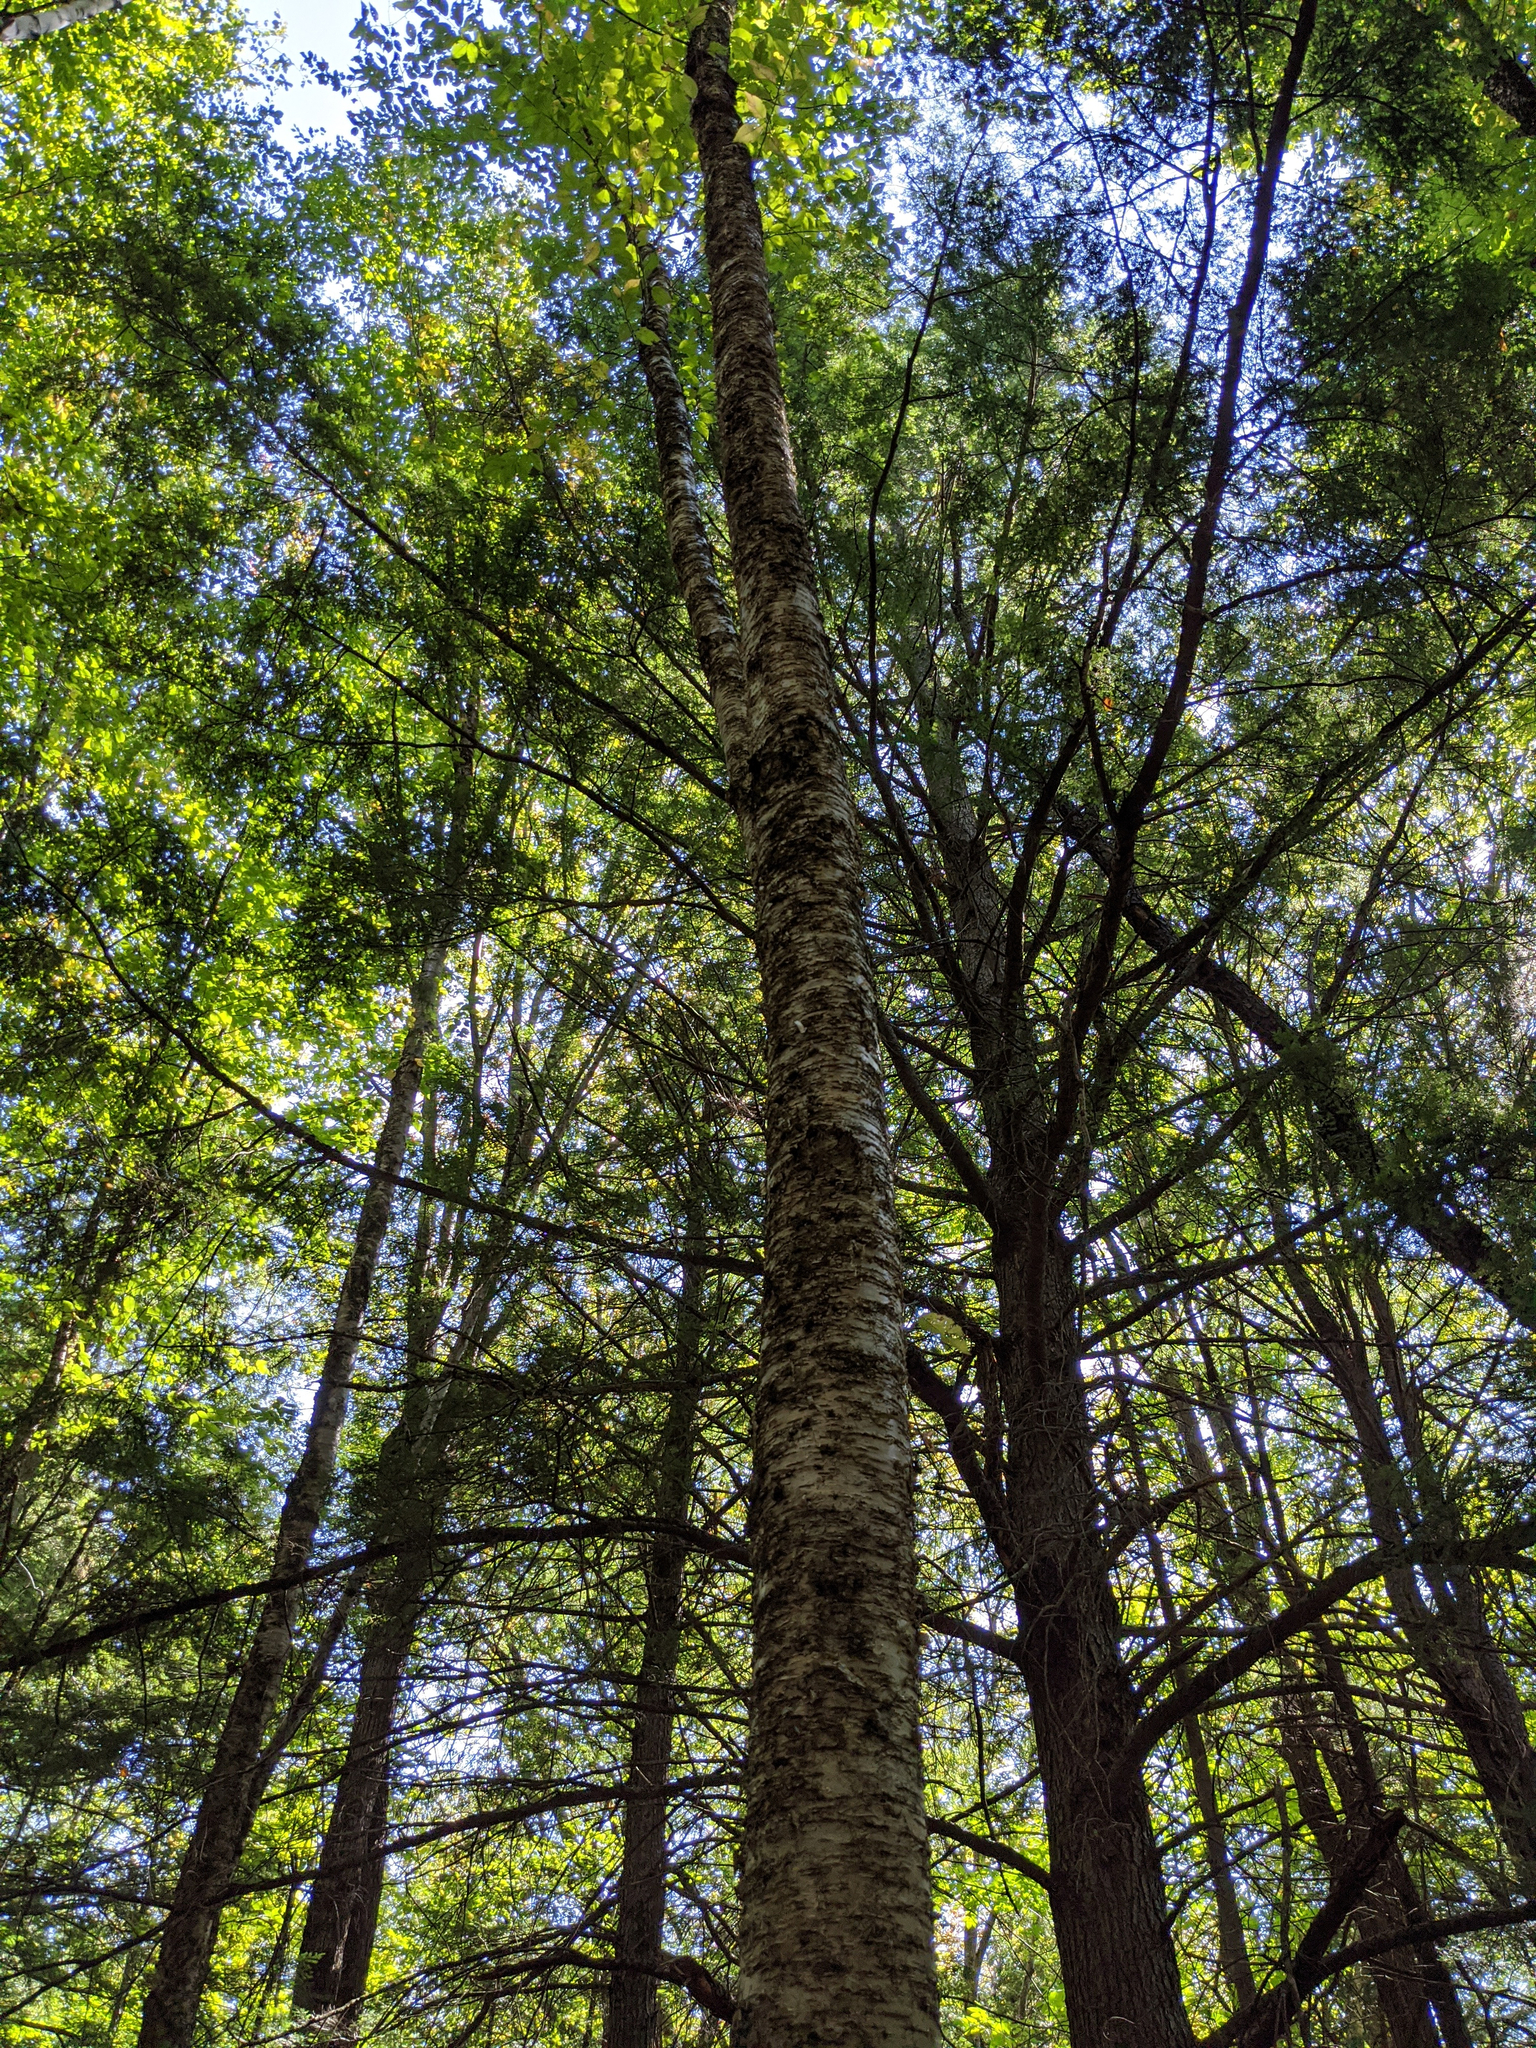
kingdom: Plantae
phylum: Tracheophyta
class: Magnoliopsida
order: Fagales
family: Betulaceae
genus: Betula
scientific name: Betula alleghaniensis
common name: Yellow birch
